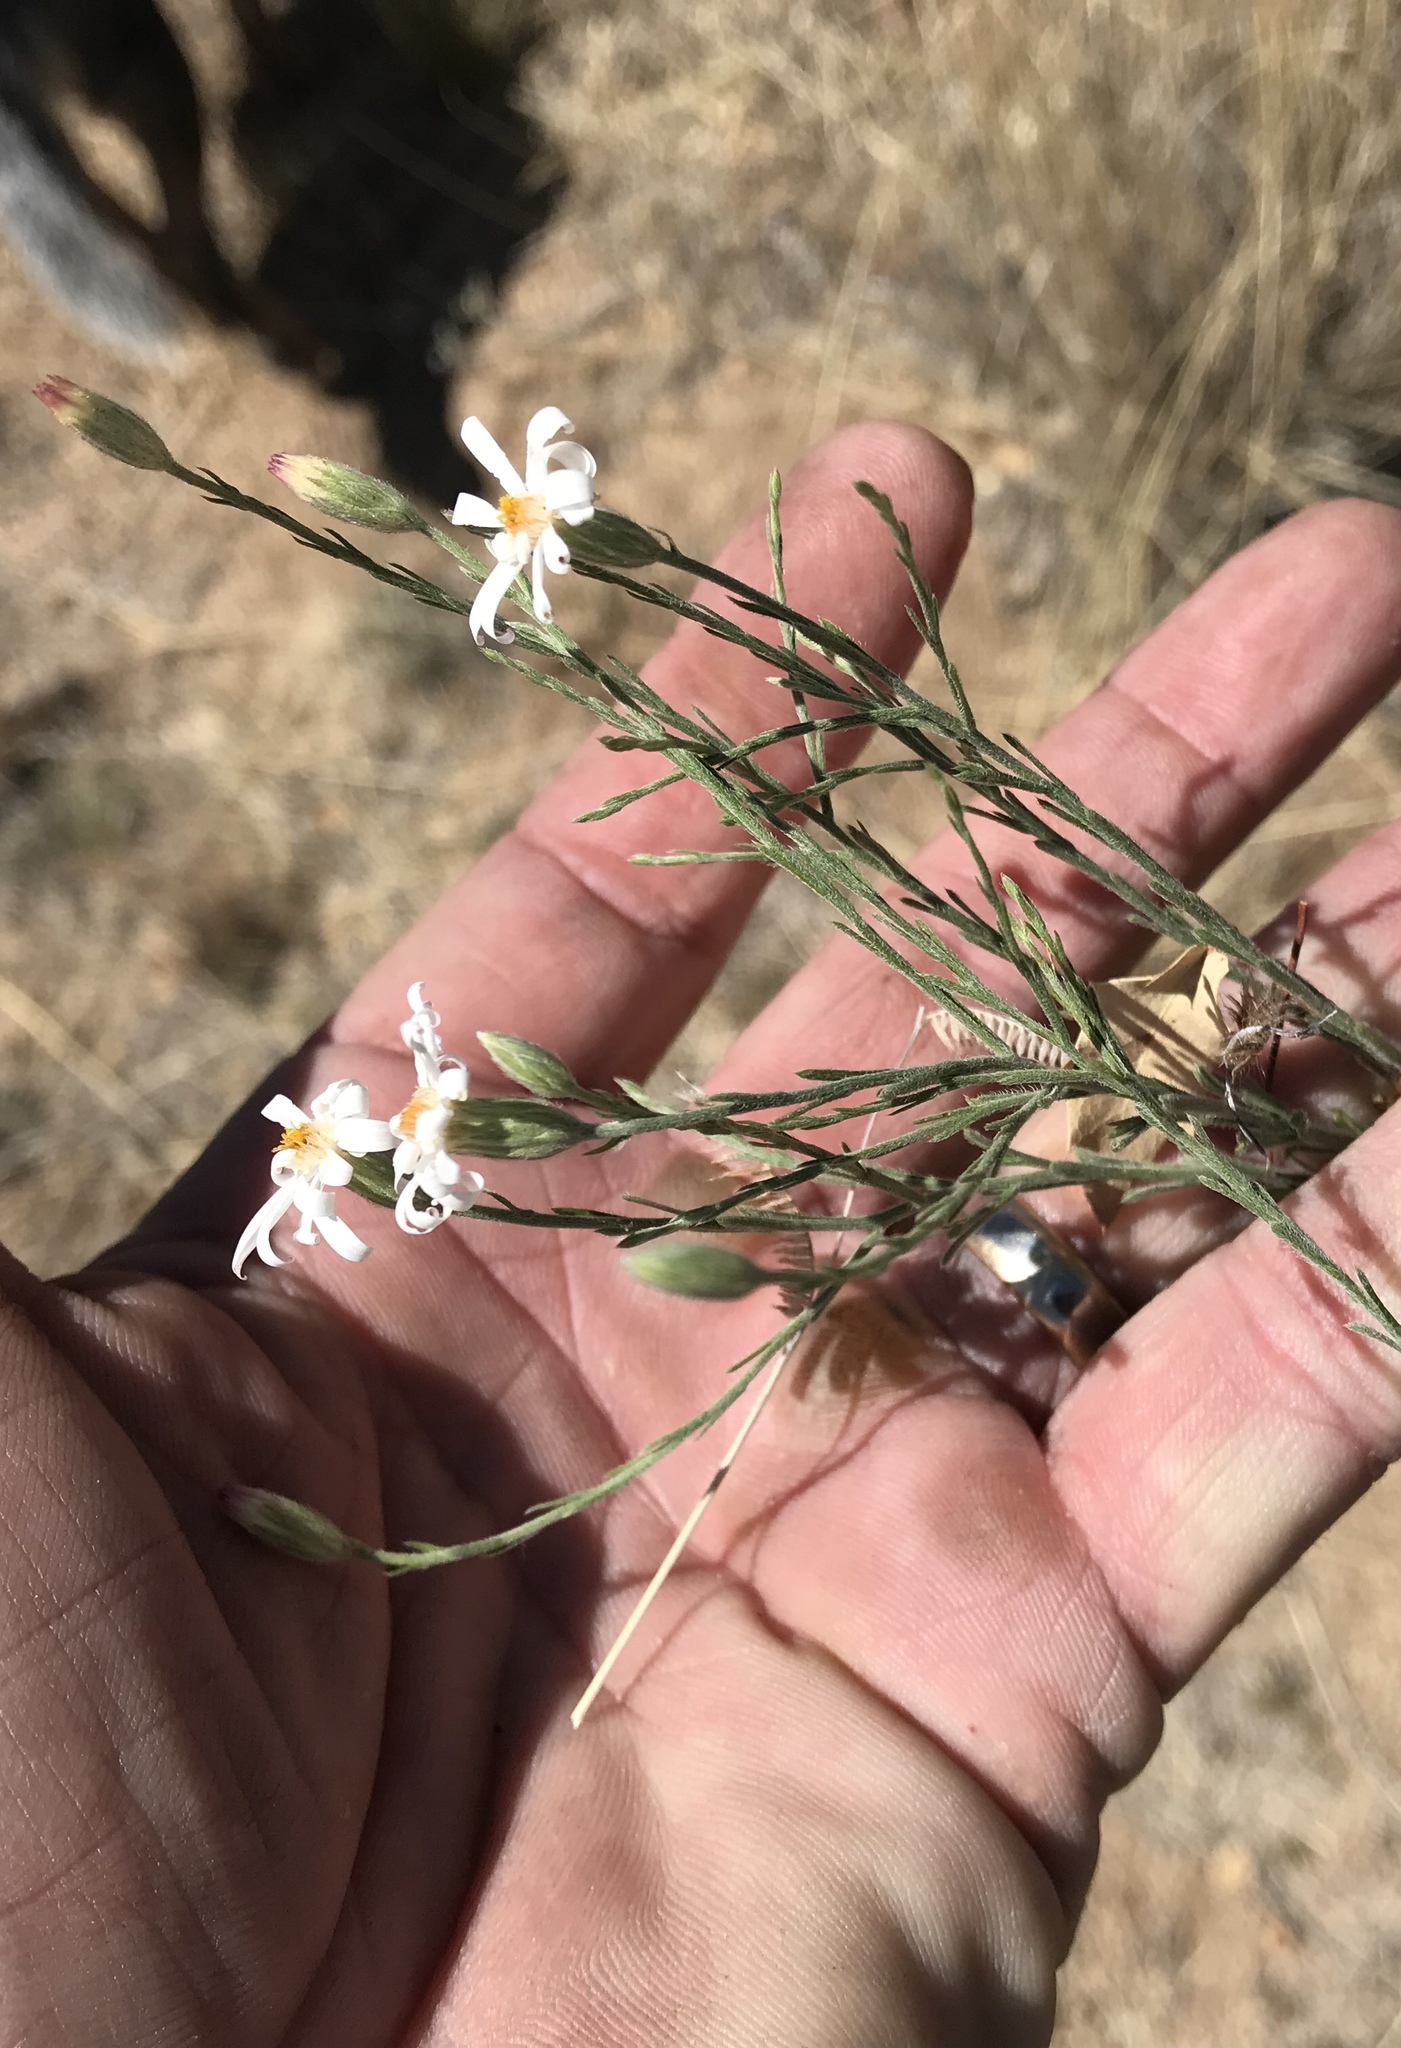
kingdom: Plantae
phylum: Tracheophyta
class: Magnoliopsida
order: Asterales
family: Asteraceae
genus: Chaetopappa
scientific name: Chaetopappa ericoides
